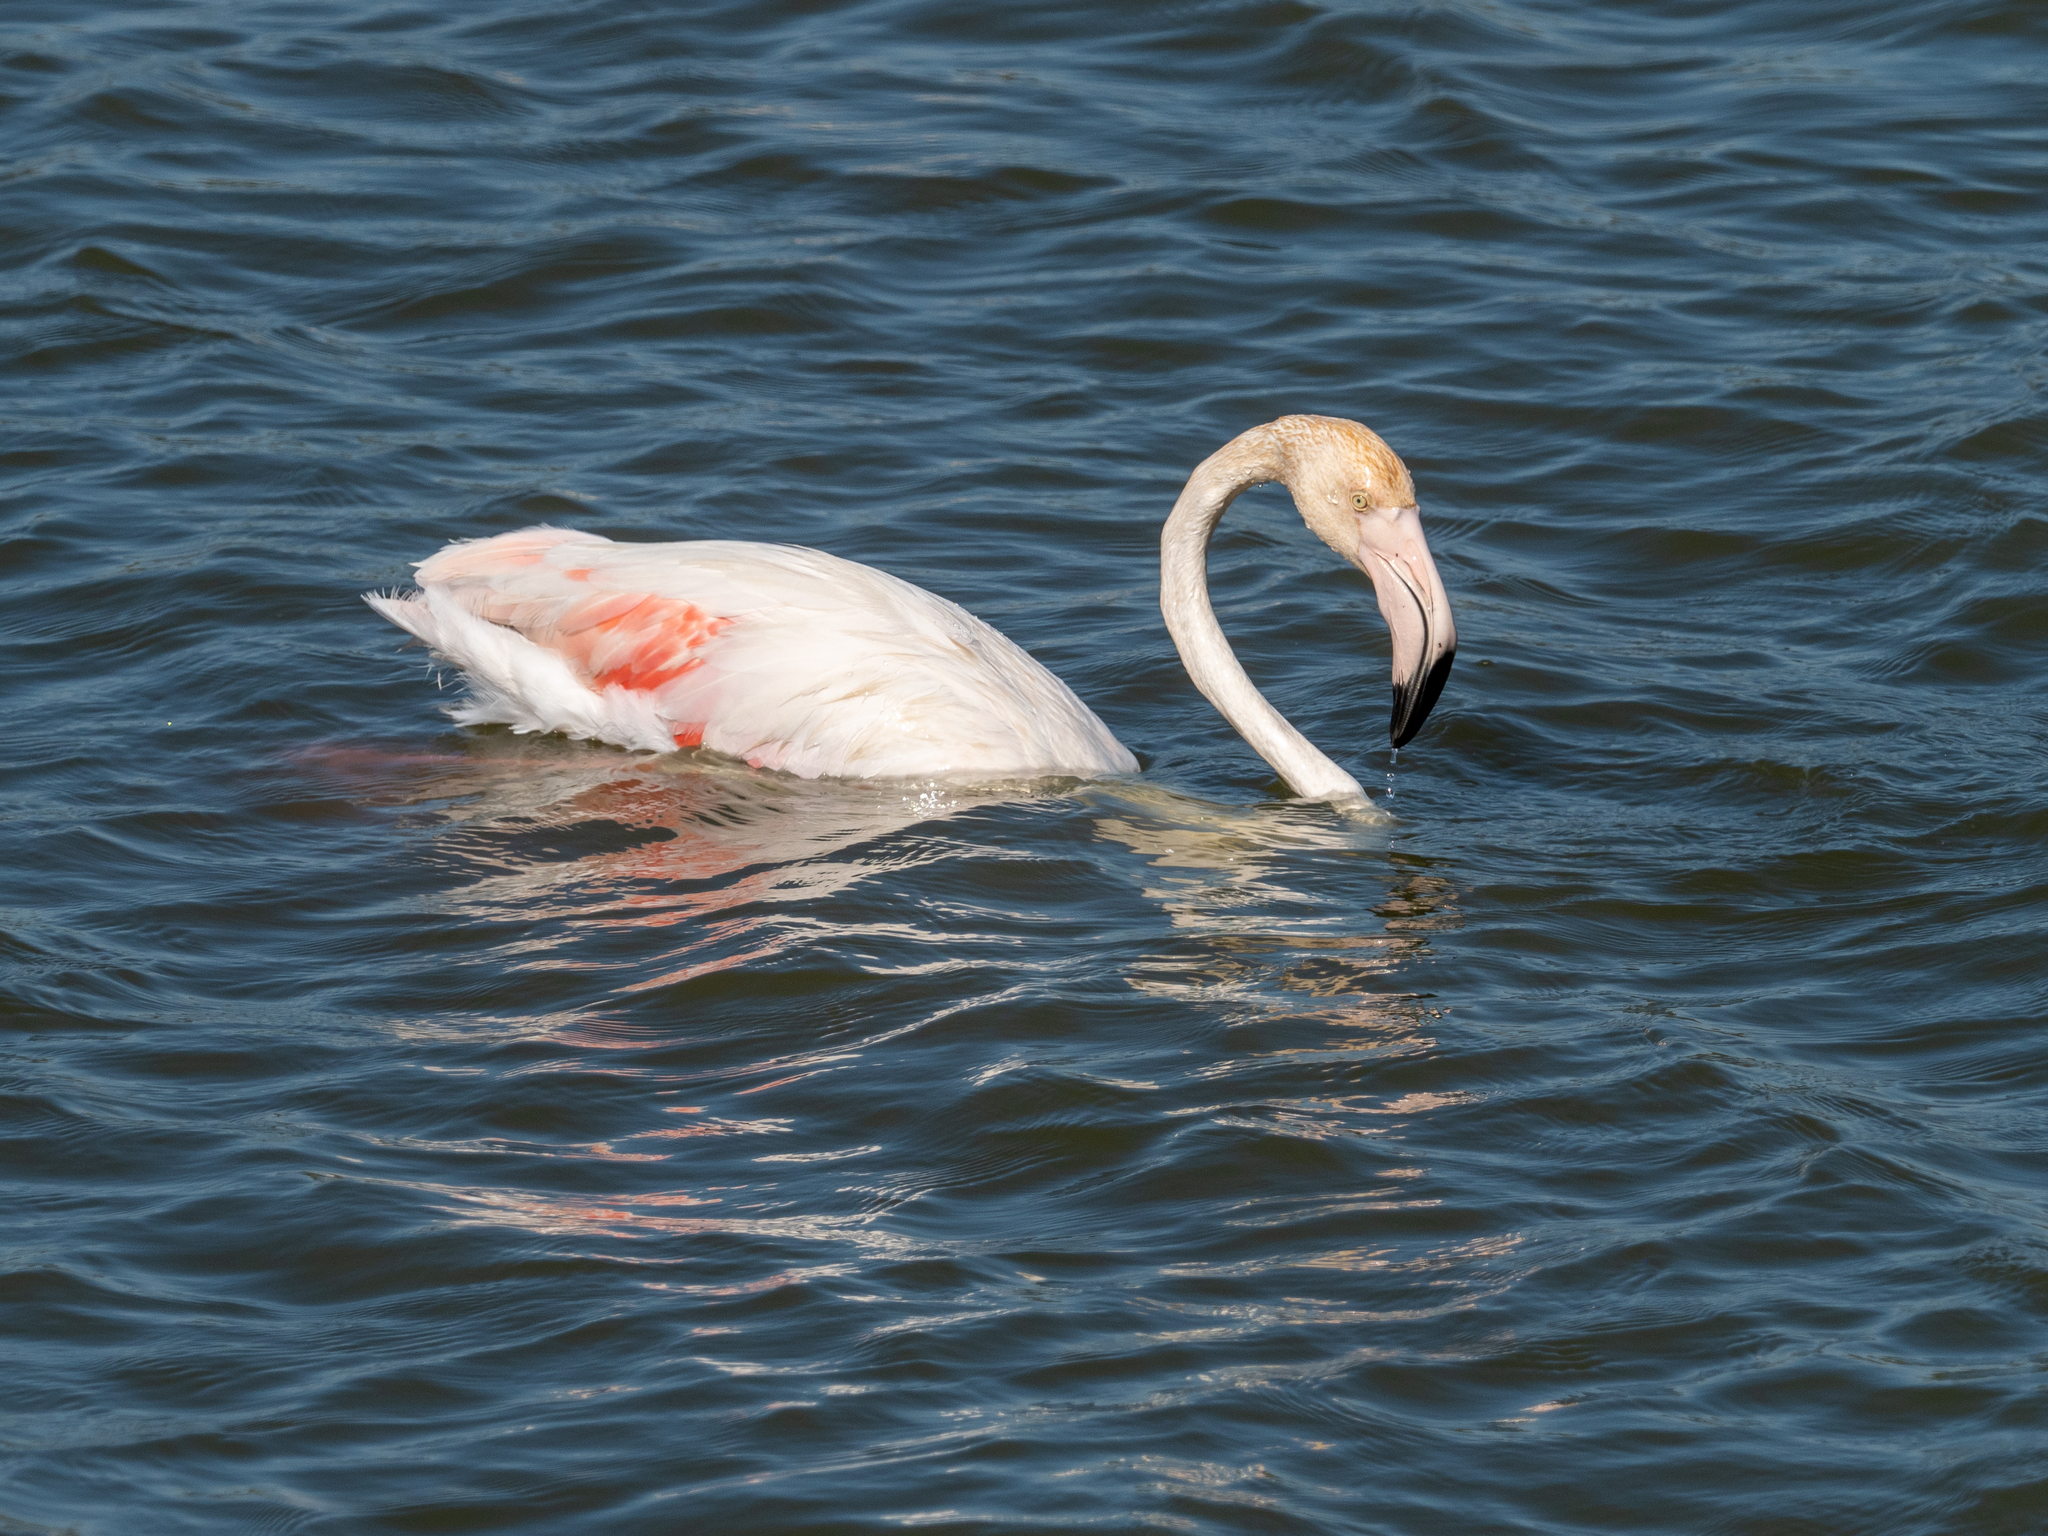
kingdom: Animalia
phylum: Chordata
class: Aves
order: Phoenicopteriformes
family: Phoenicopteridae
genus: Phoenicopterus
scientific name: Phoenicopterus roseus
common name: Greater flamingo
